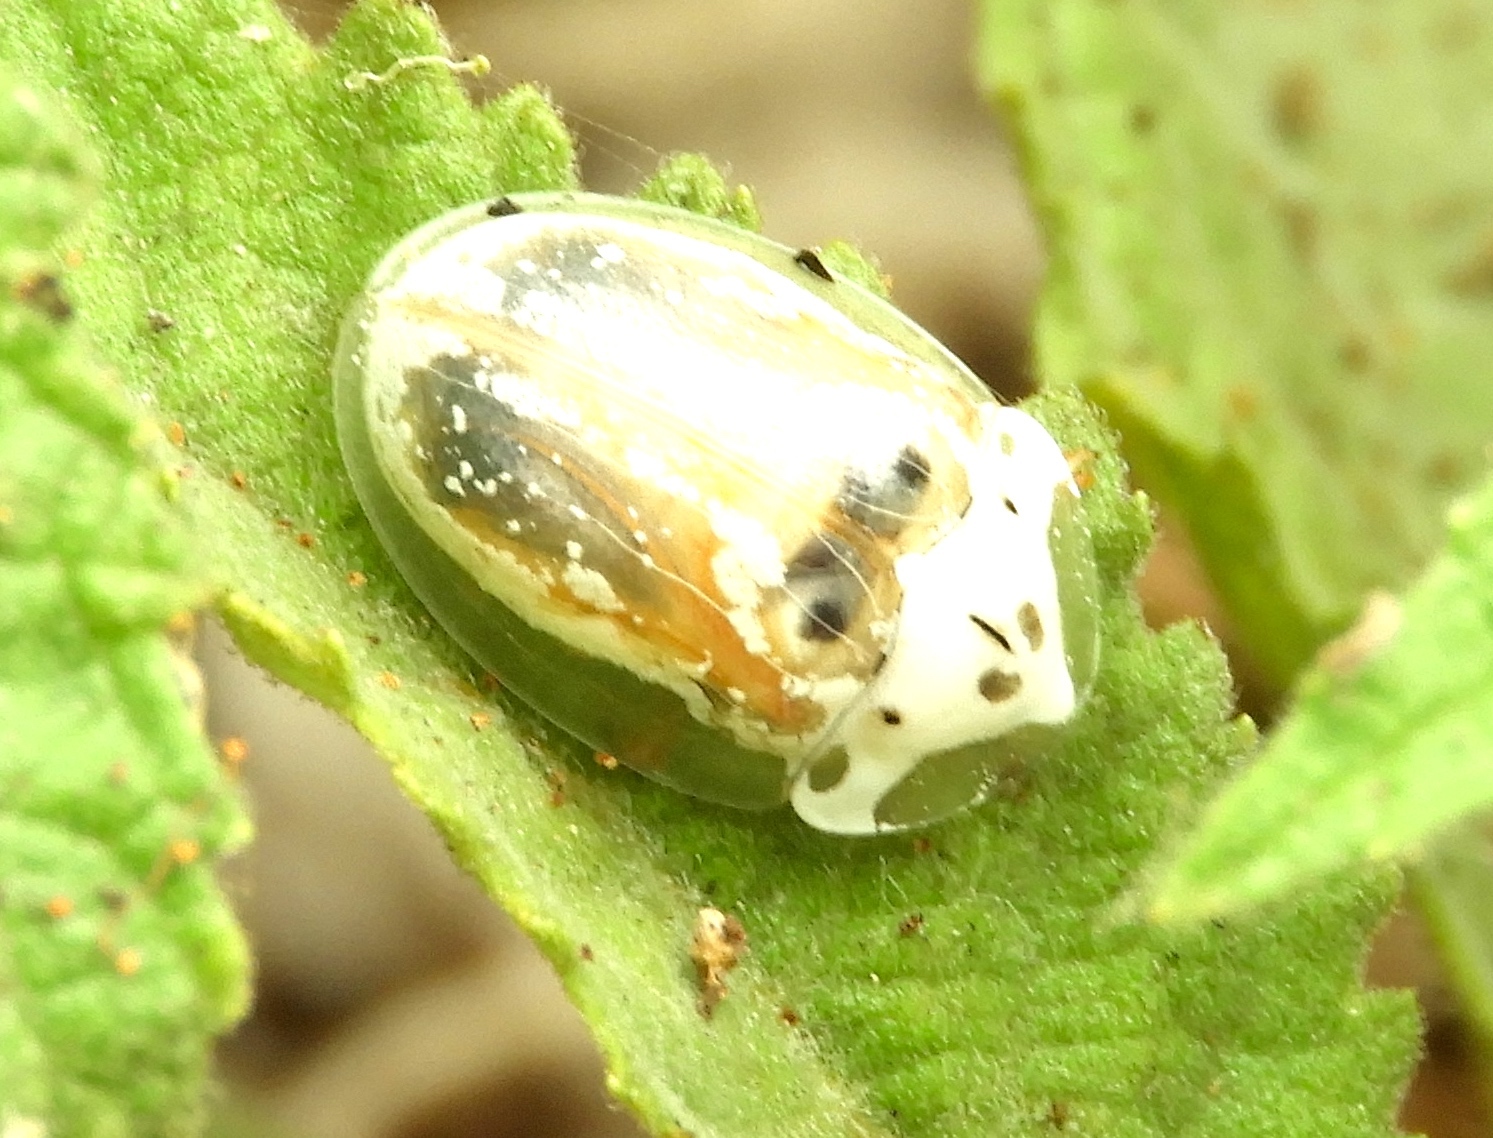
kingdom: Animalia
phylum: Arthropoda
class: Insecta
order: Coleoptera
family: Chrysomelidae
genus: Physonota
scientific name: Physonota arizonae
